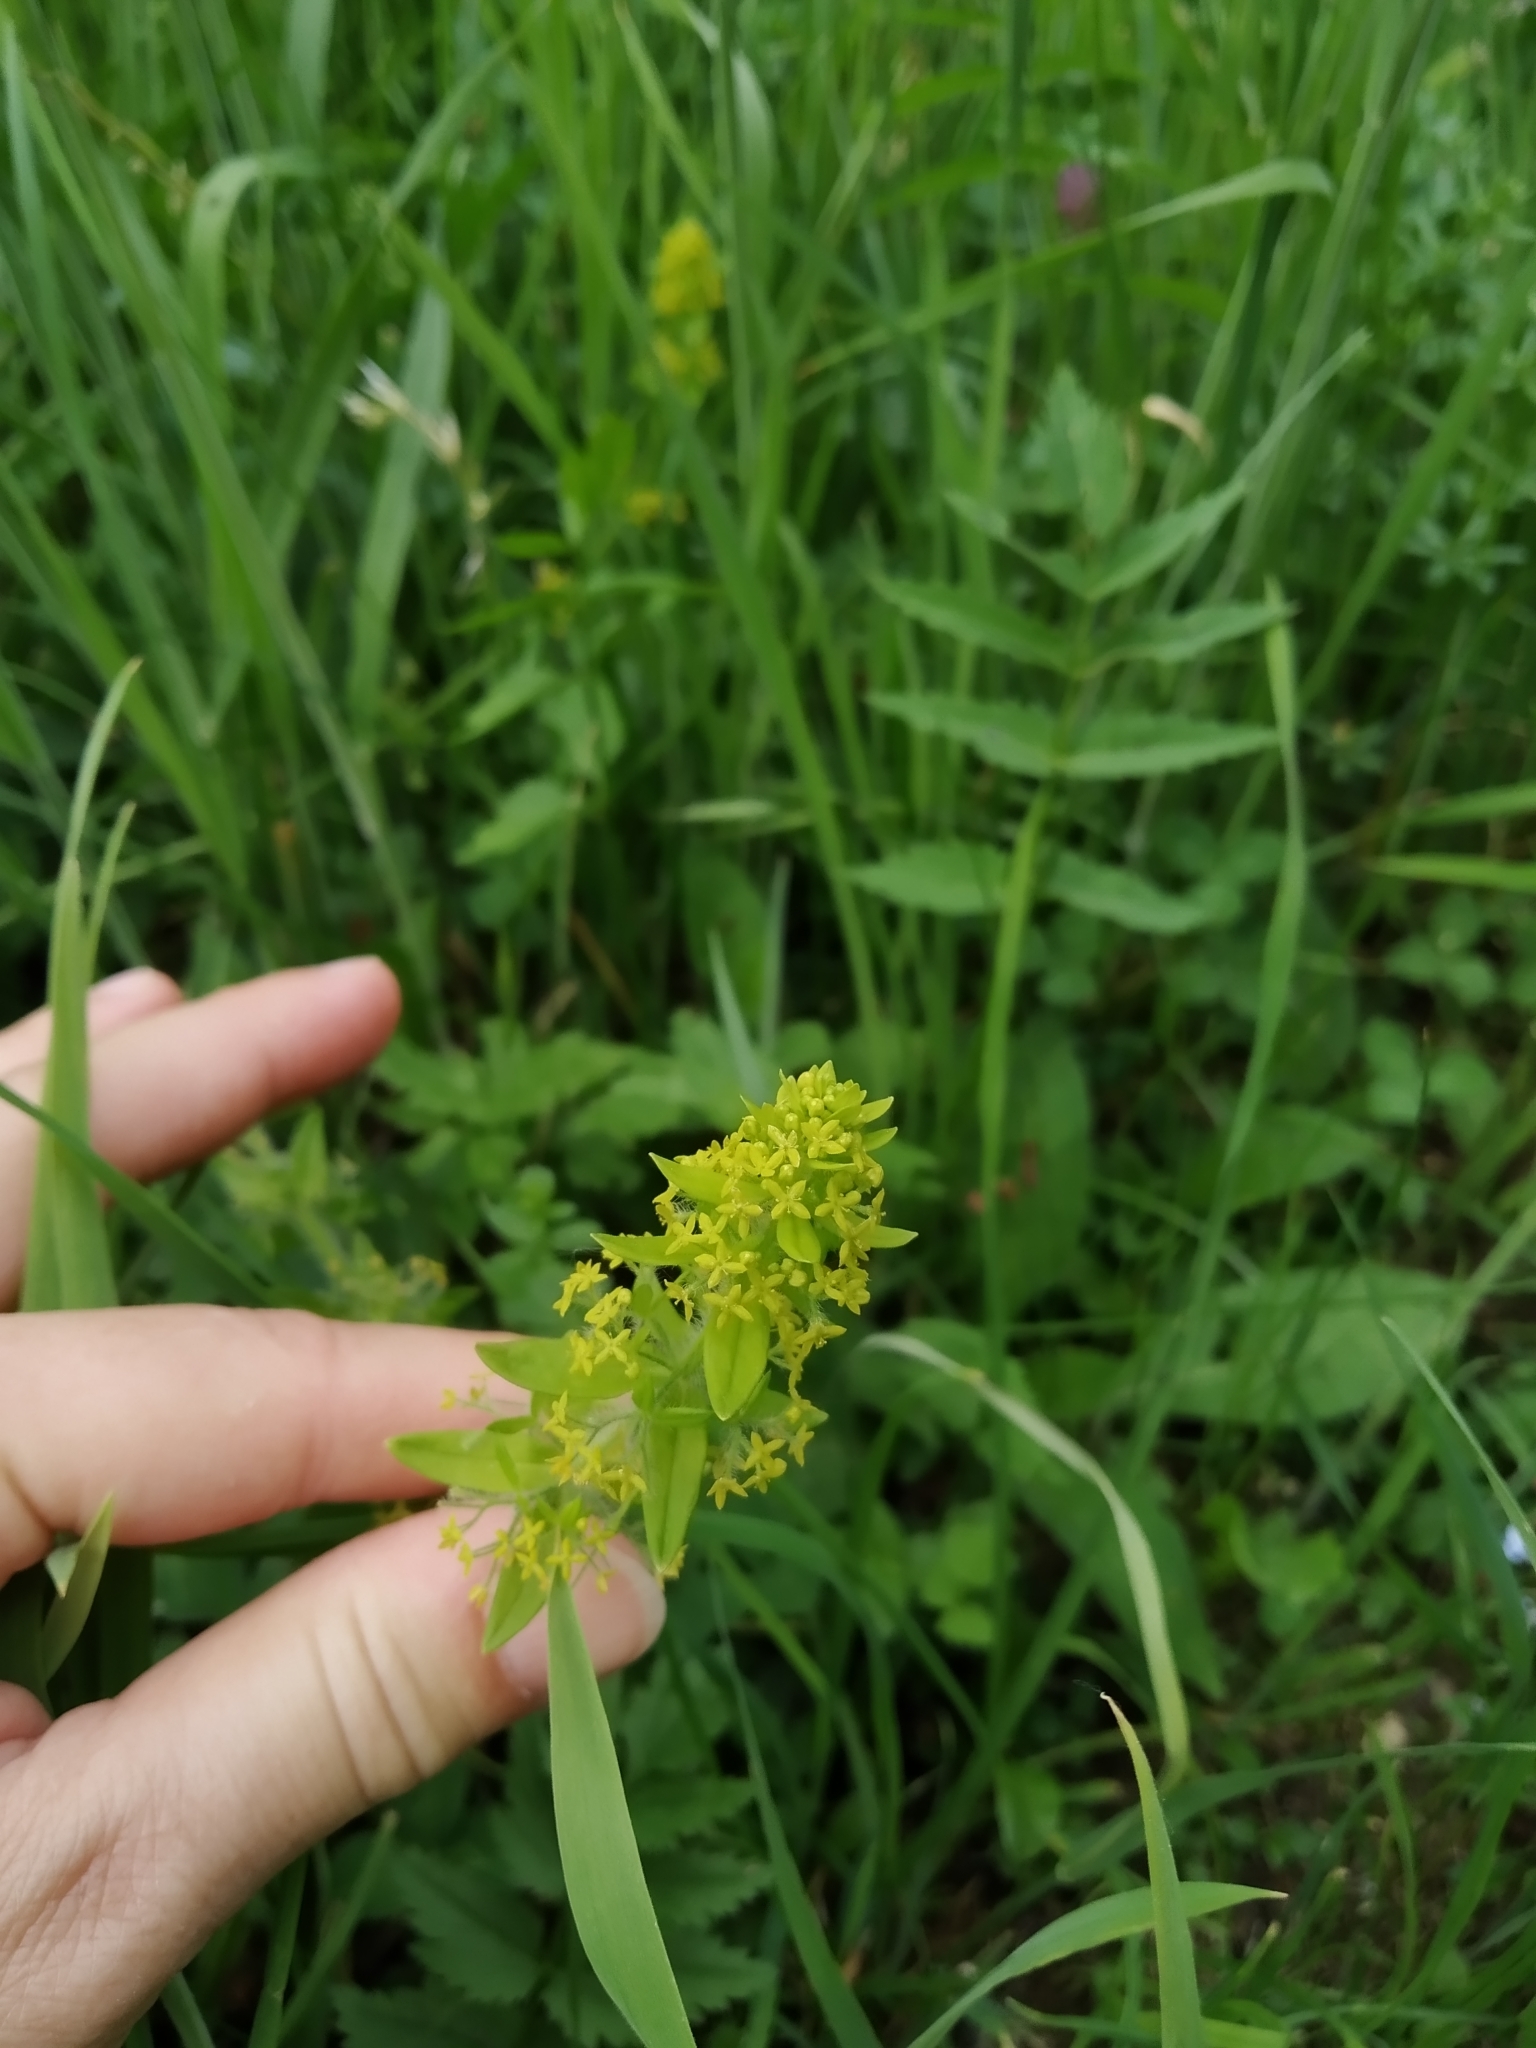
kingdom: Plantae
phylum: Tracheophyta
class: Magnoliopsida
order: Gentianales
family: Rubiaceae
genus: Cruciata
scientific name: Cruciata laevipes
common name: Crosswort
